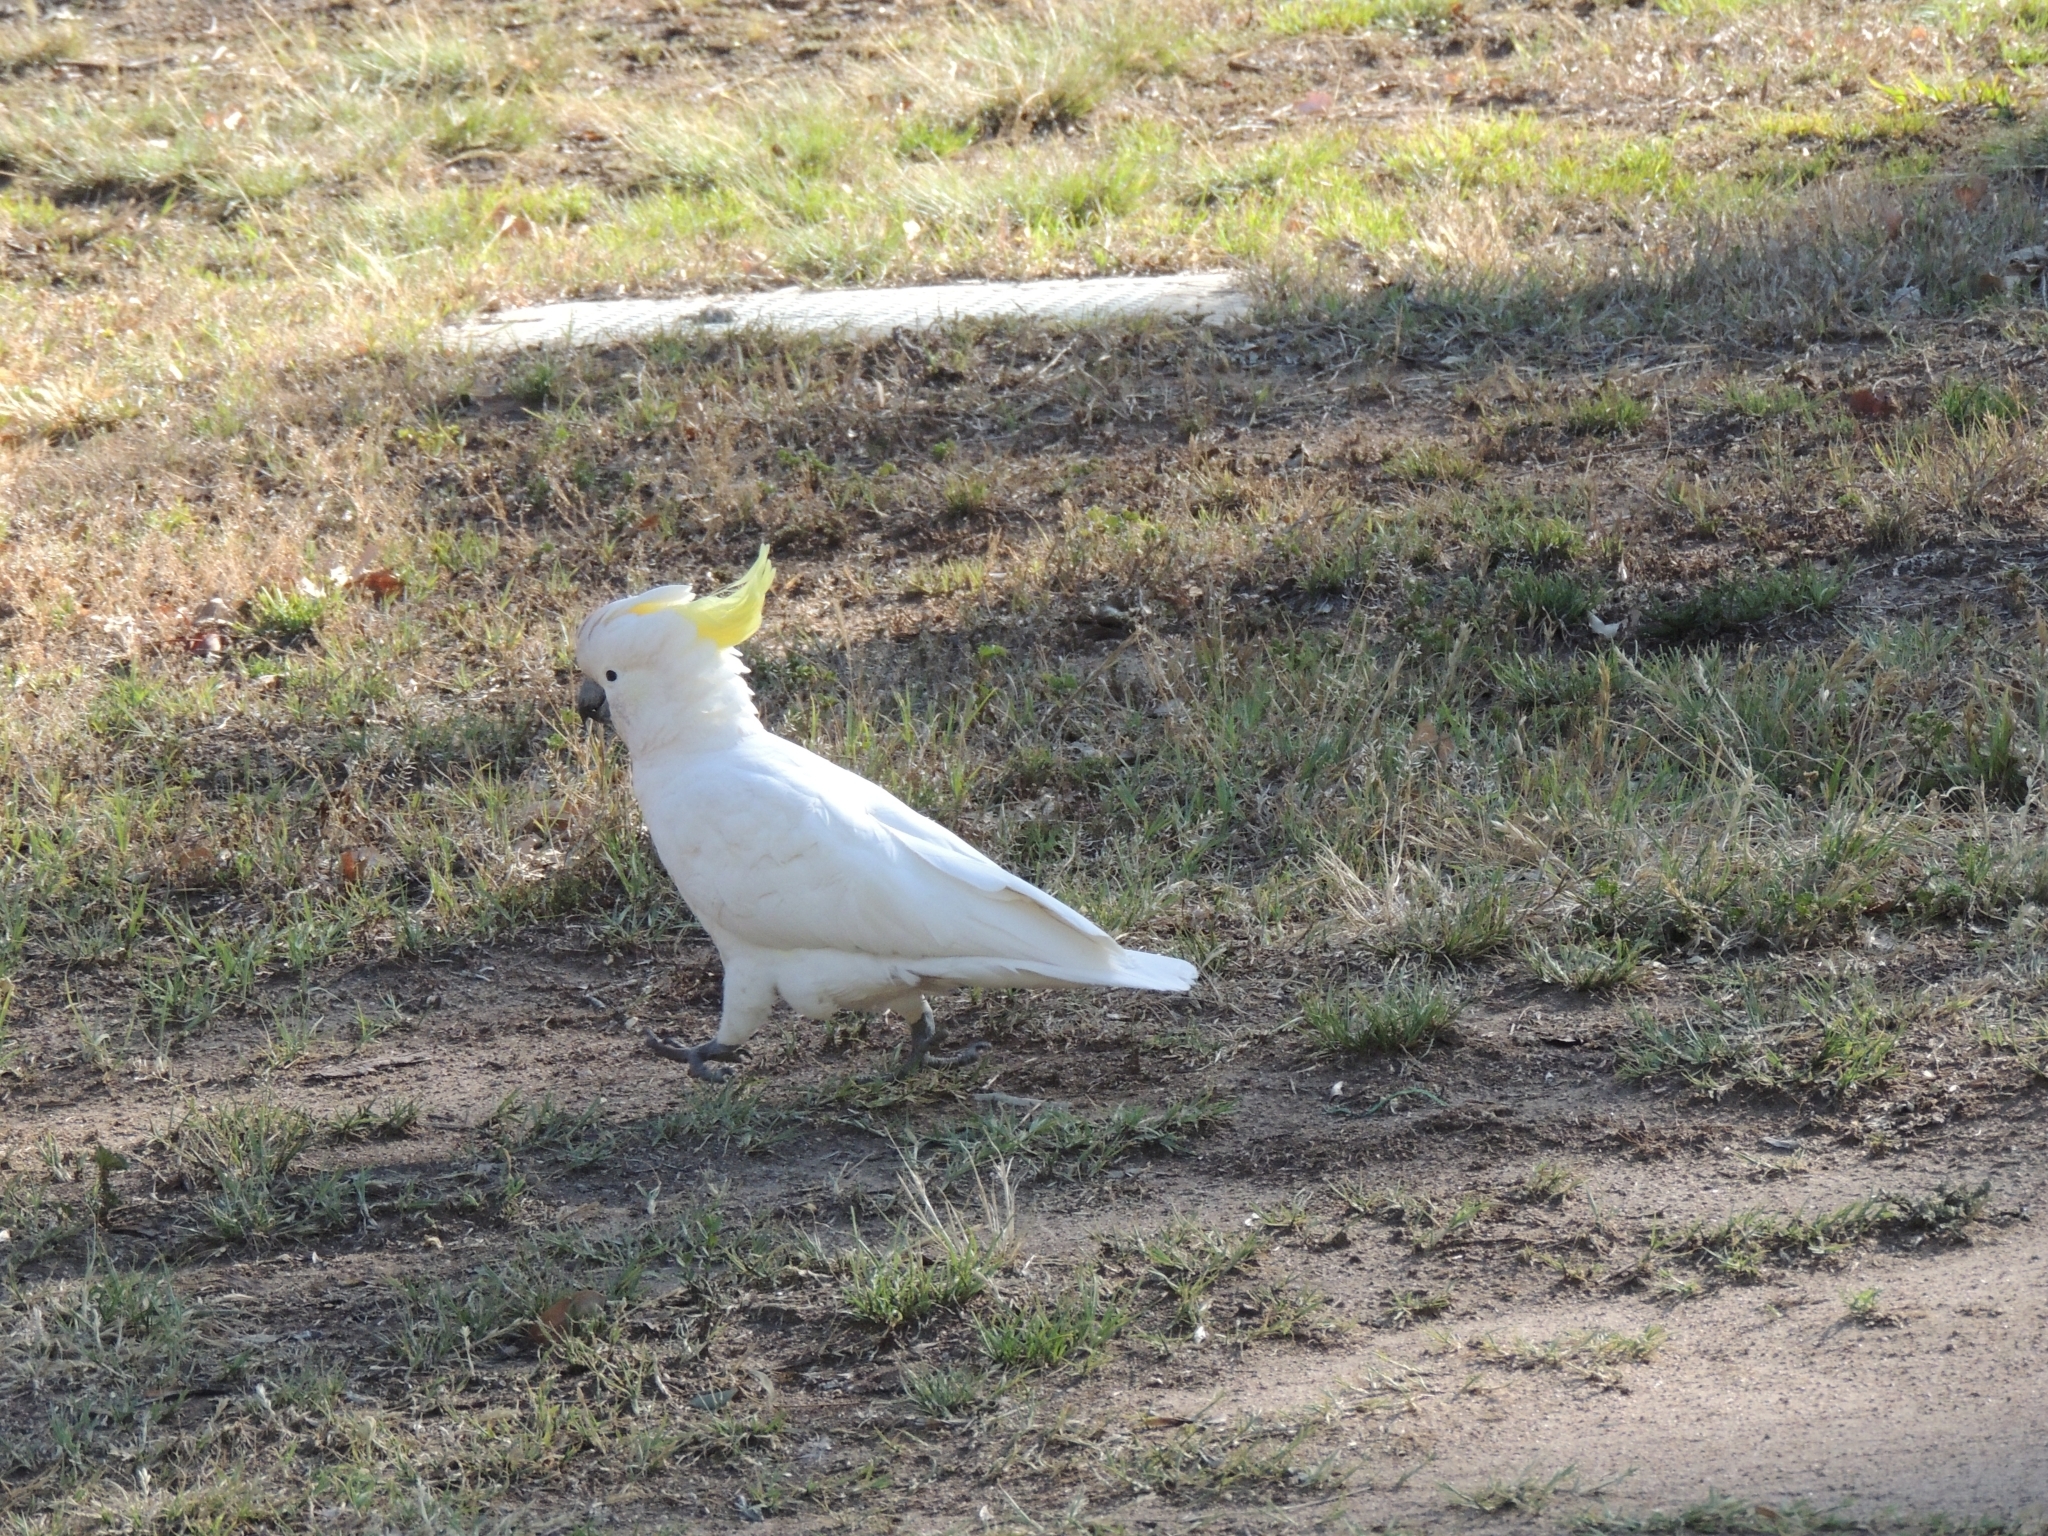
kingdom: Animalia
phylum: Chordata
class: Aves
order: Psittaciformes
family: Psittacidae
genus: Cacatua
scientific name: Cacatua galerita
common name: Sulphur-crested cockatoo
